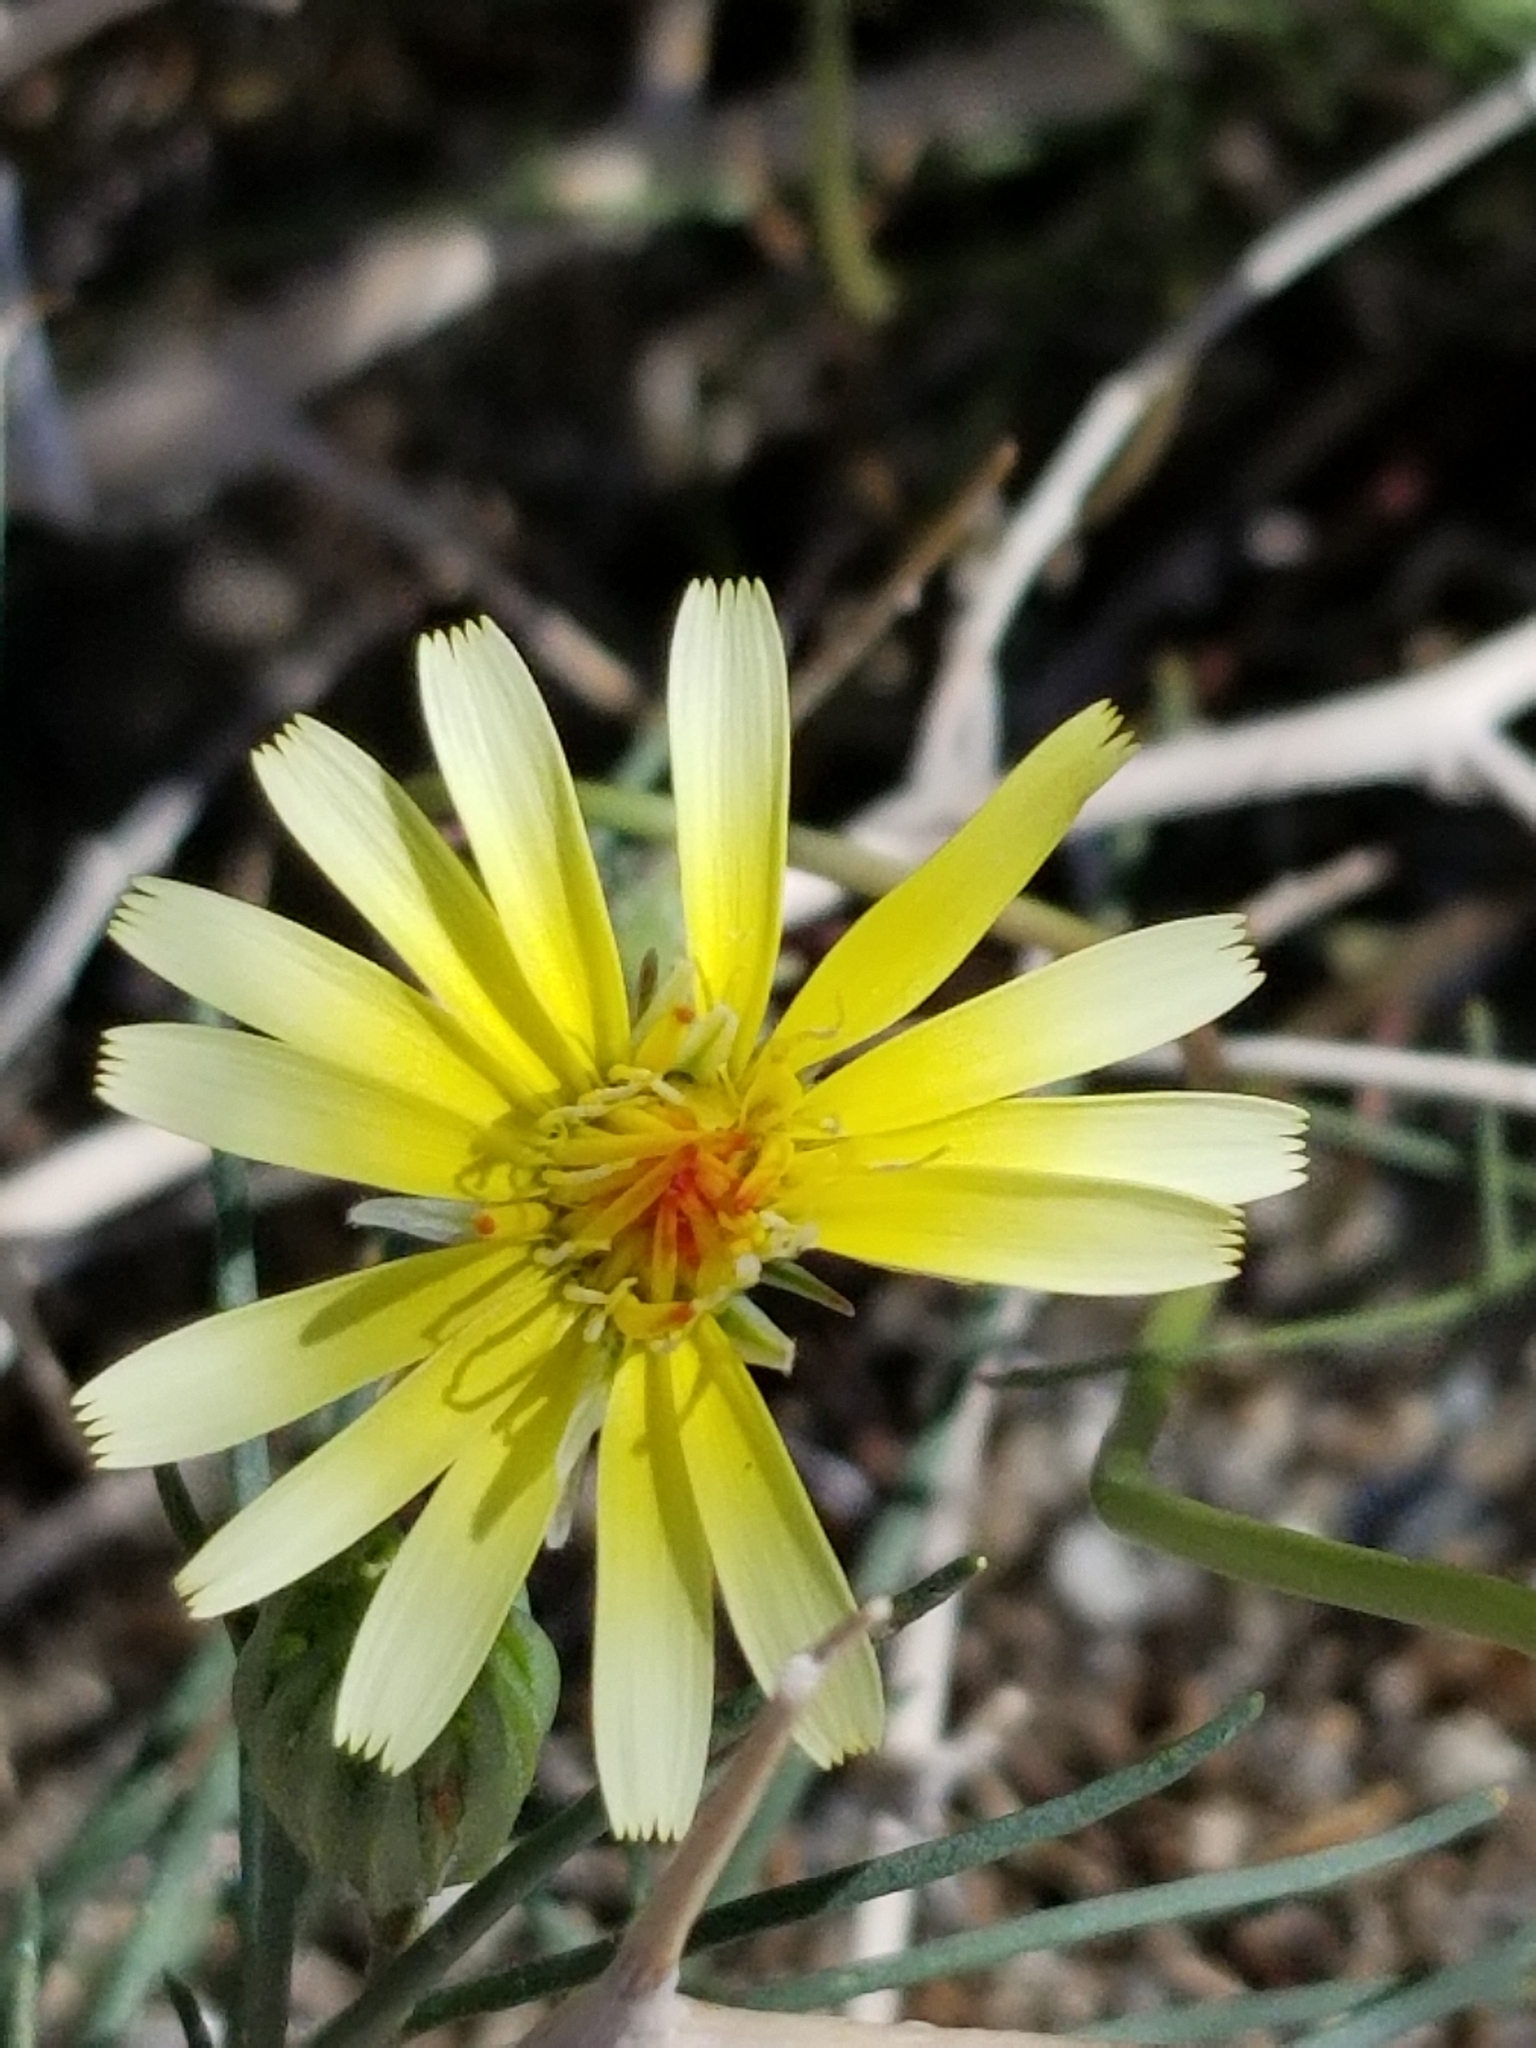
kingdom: Plantae
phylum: Tracheophyta
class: Magnoliopsida
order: Asterales
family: Asteraceae
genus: Malacothrix
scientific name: Malacothrix glabrata
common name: Smooth desert-dandelion
